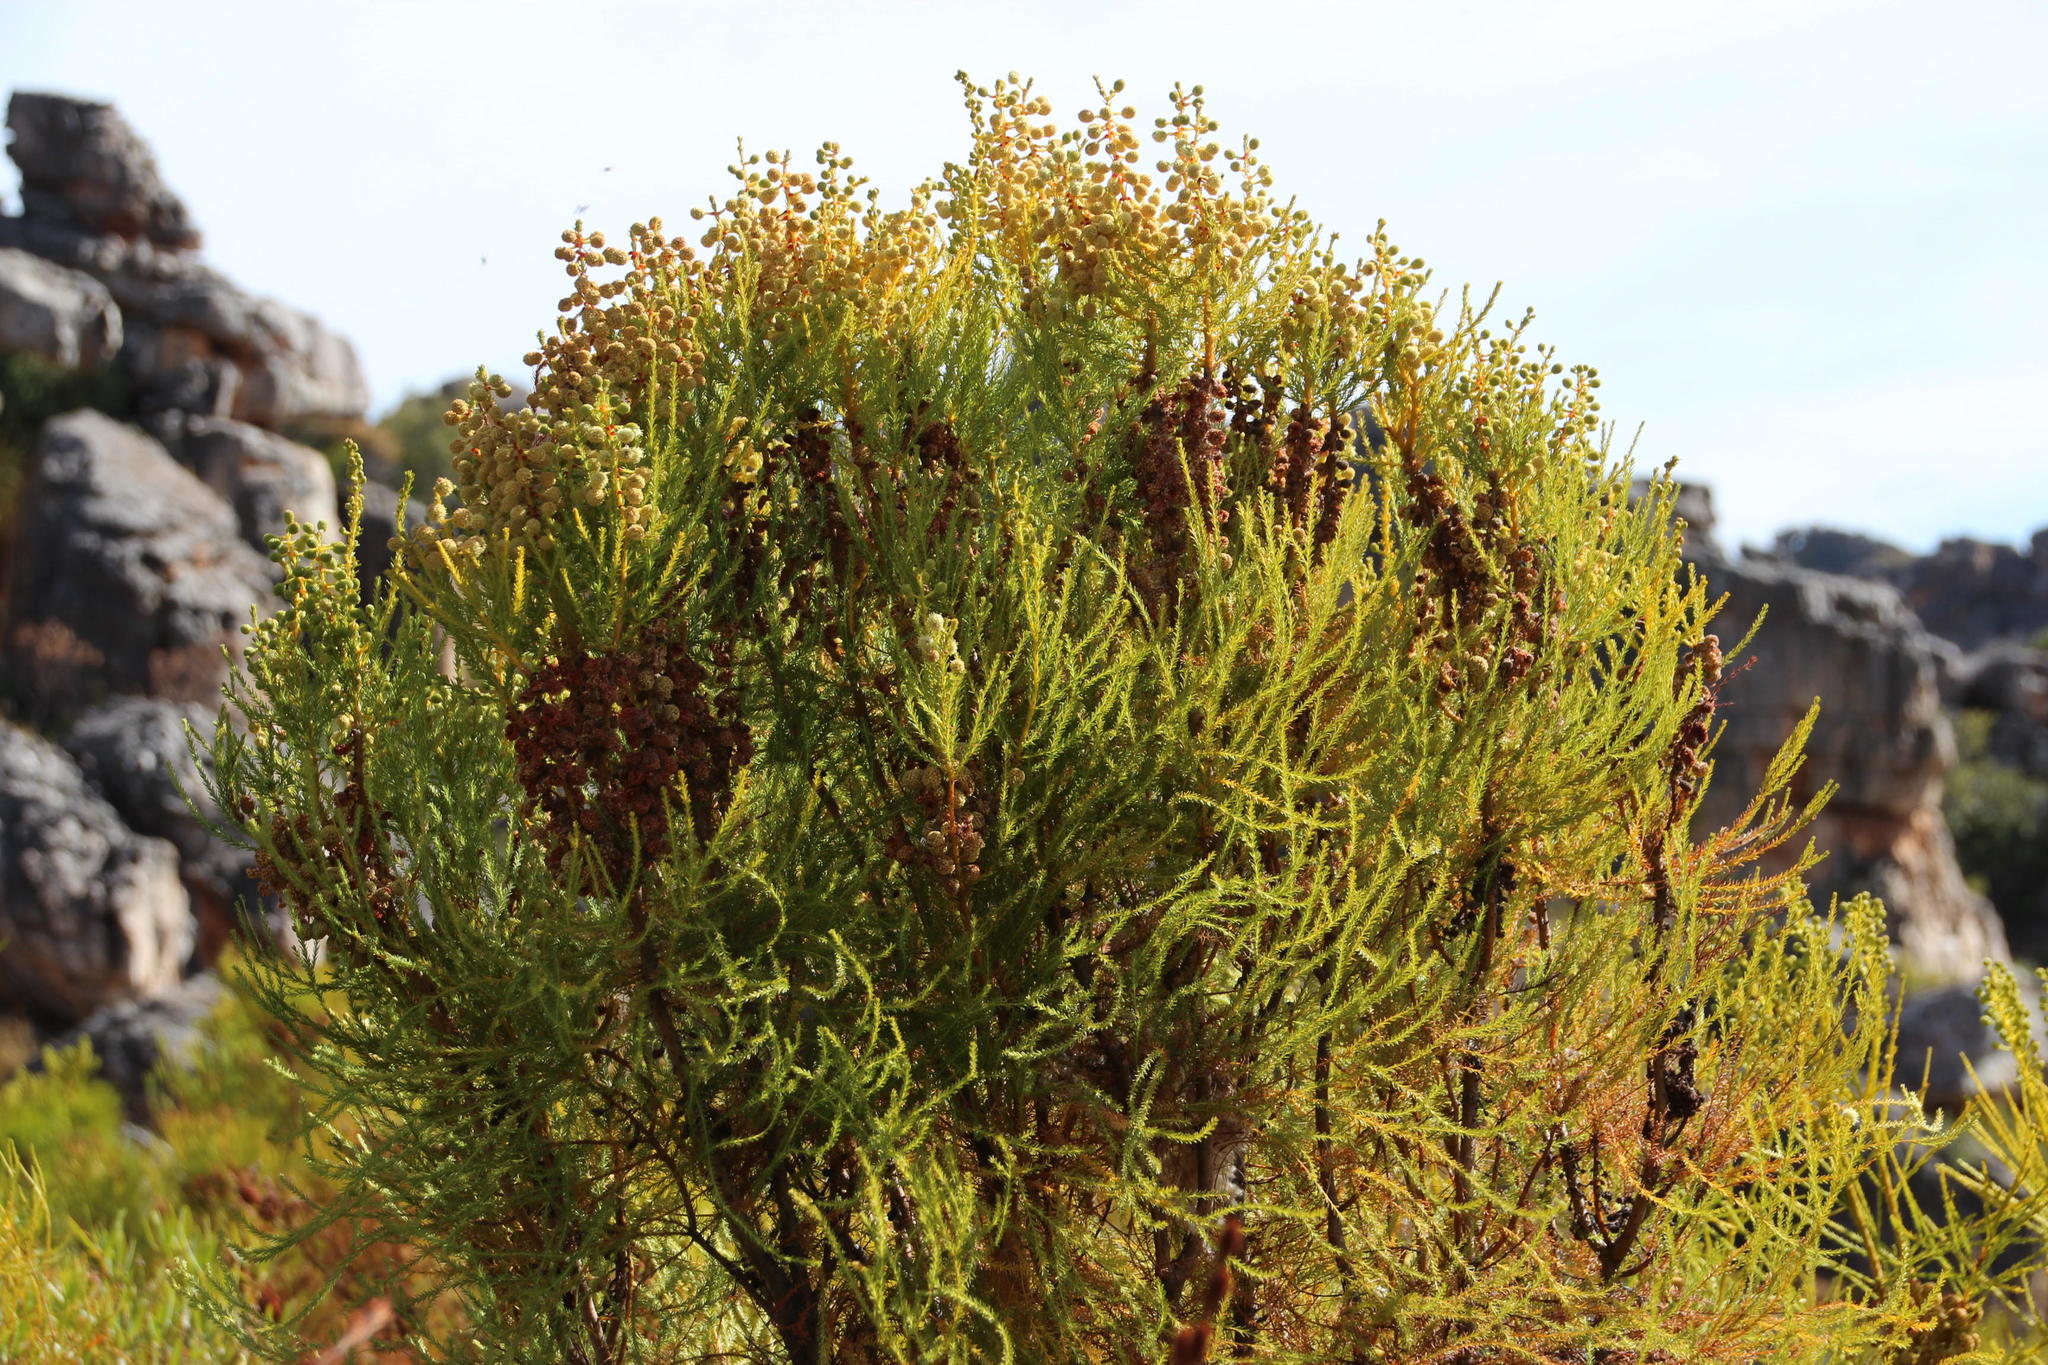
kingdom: Plantae
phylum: Tracheophyta
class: Magnoliopsida
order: Bruniales
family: Bruniaceae
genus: Berzelia
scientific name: Berzelia lanuginosa
